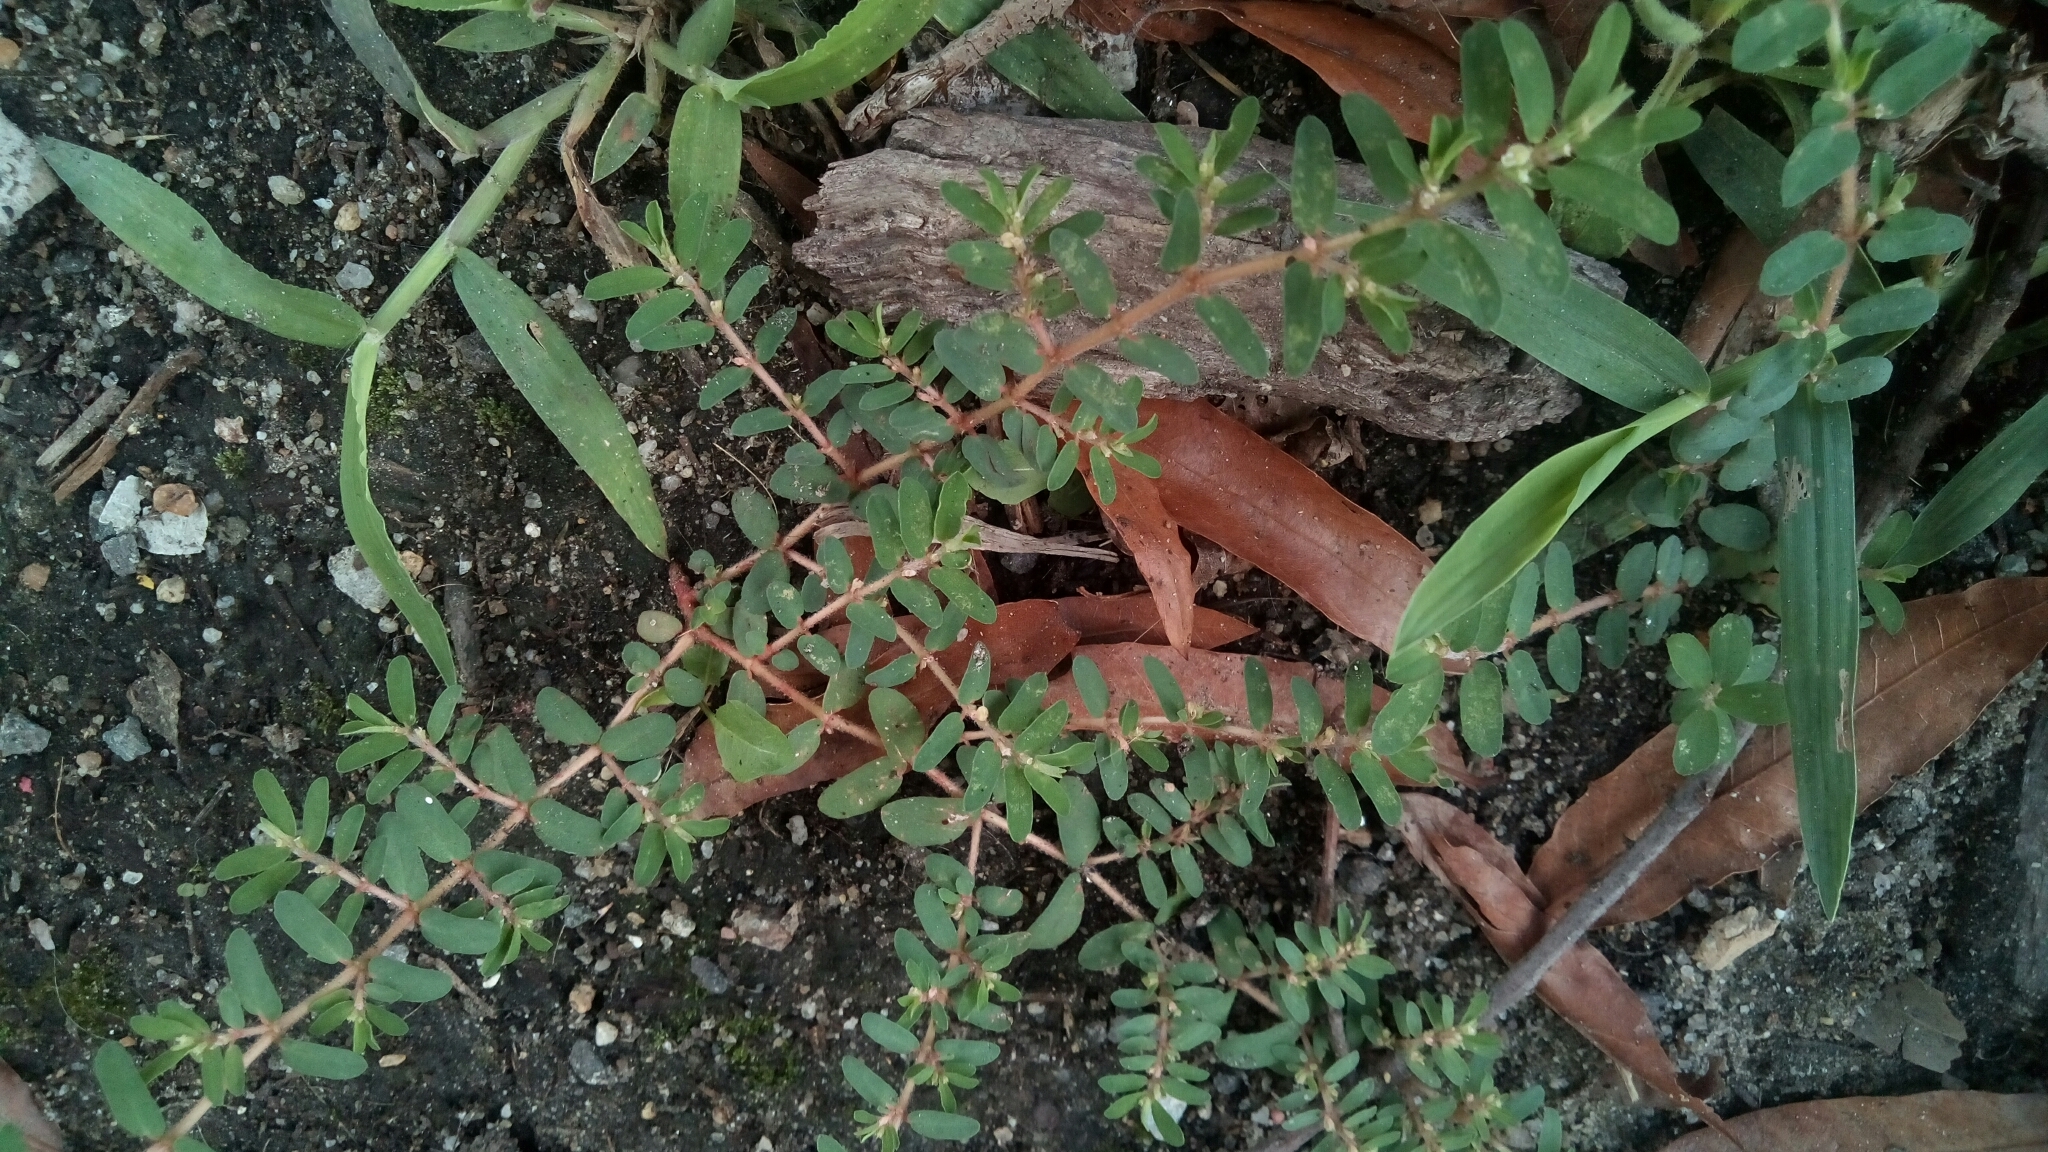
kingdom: Plantae
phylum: Tracheophyta
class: Magnoliopsida
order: Malpighiales
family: Euphorbiaceae
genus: Euphorbia
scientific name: Euphorbia maculata
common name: Spotted spurge
